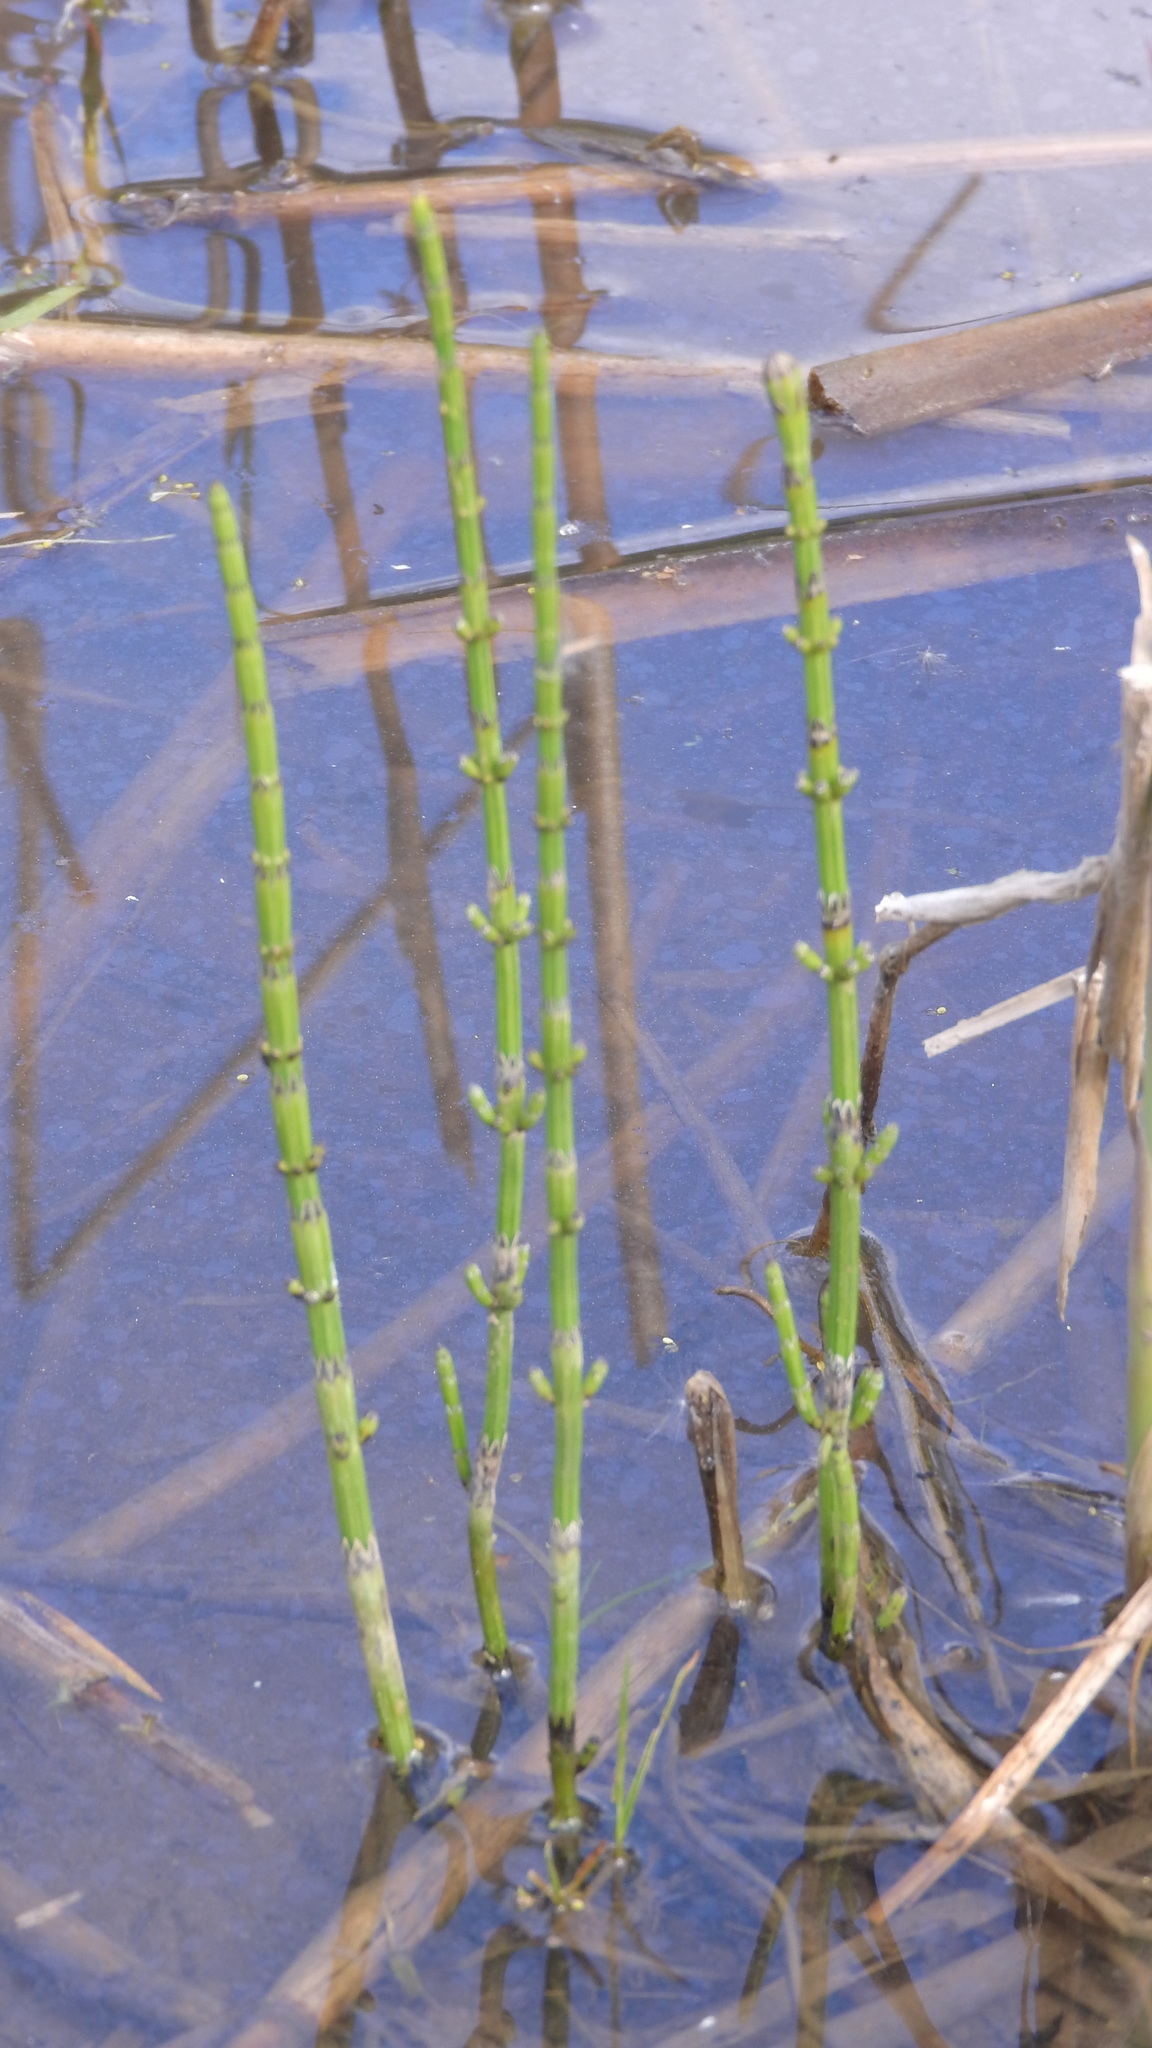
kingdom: Plantae
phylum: Tracheophyta
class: Polypodiopsida
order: Equisetales
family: Equisetaceae
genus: Equisetum
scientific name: Equisetum palustre
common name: Marsh horsetail
